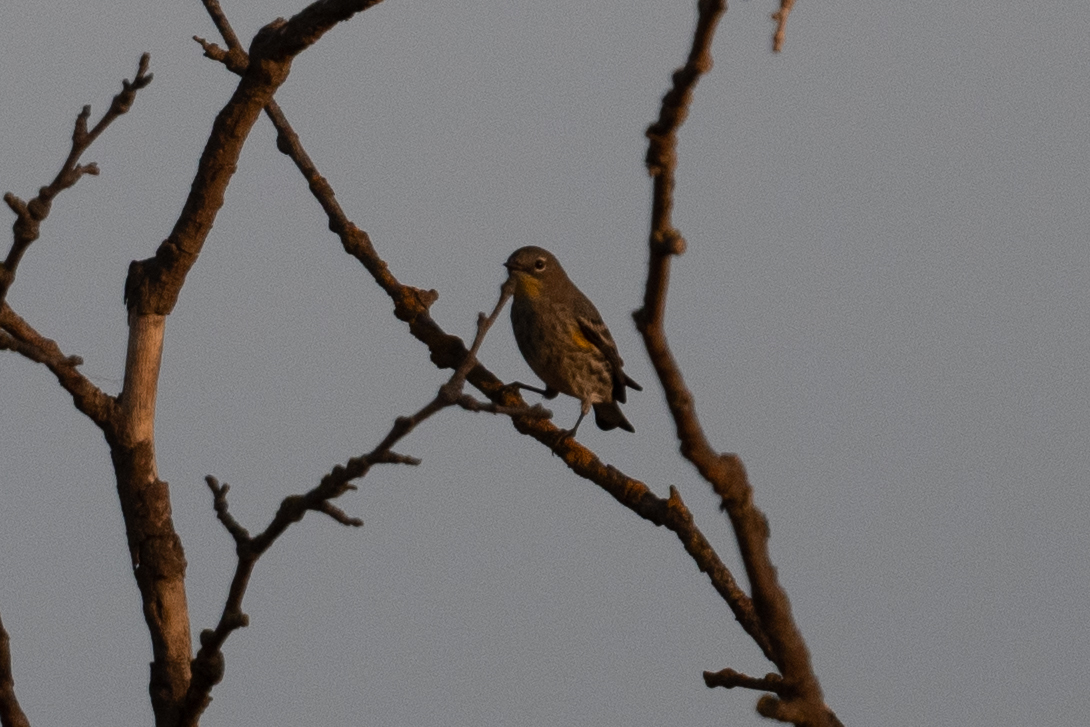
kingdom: Animalia
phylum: Chordata
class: Aves
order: Passeriformes
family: Parulidae
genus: Setophaga
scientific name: Setophaga auduboni
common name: Audubon's warbler
